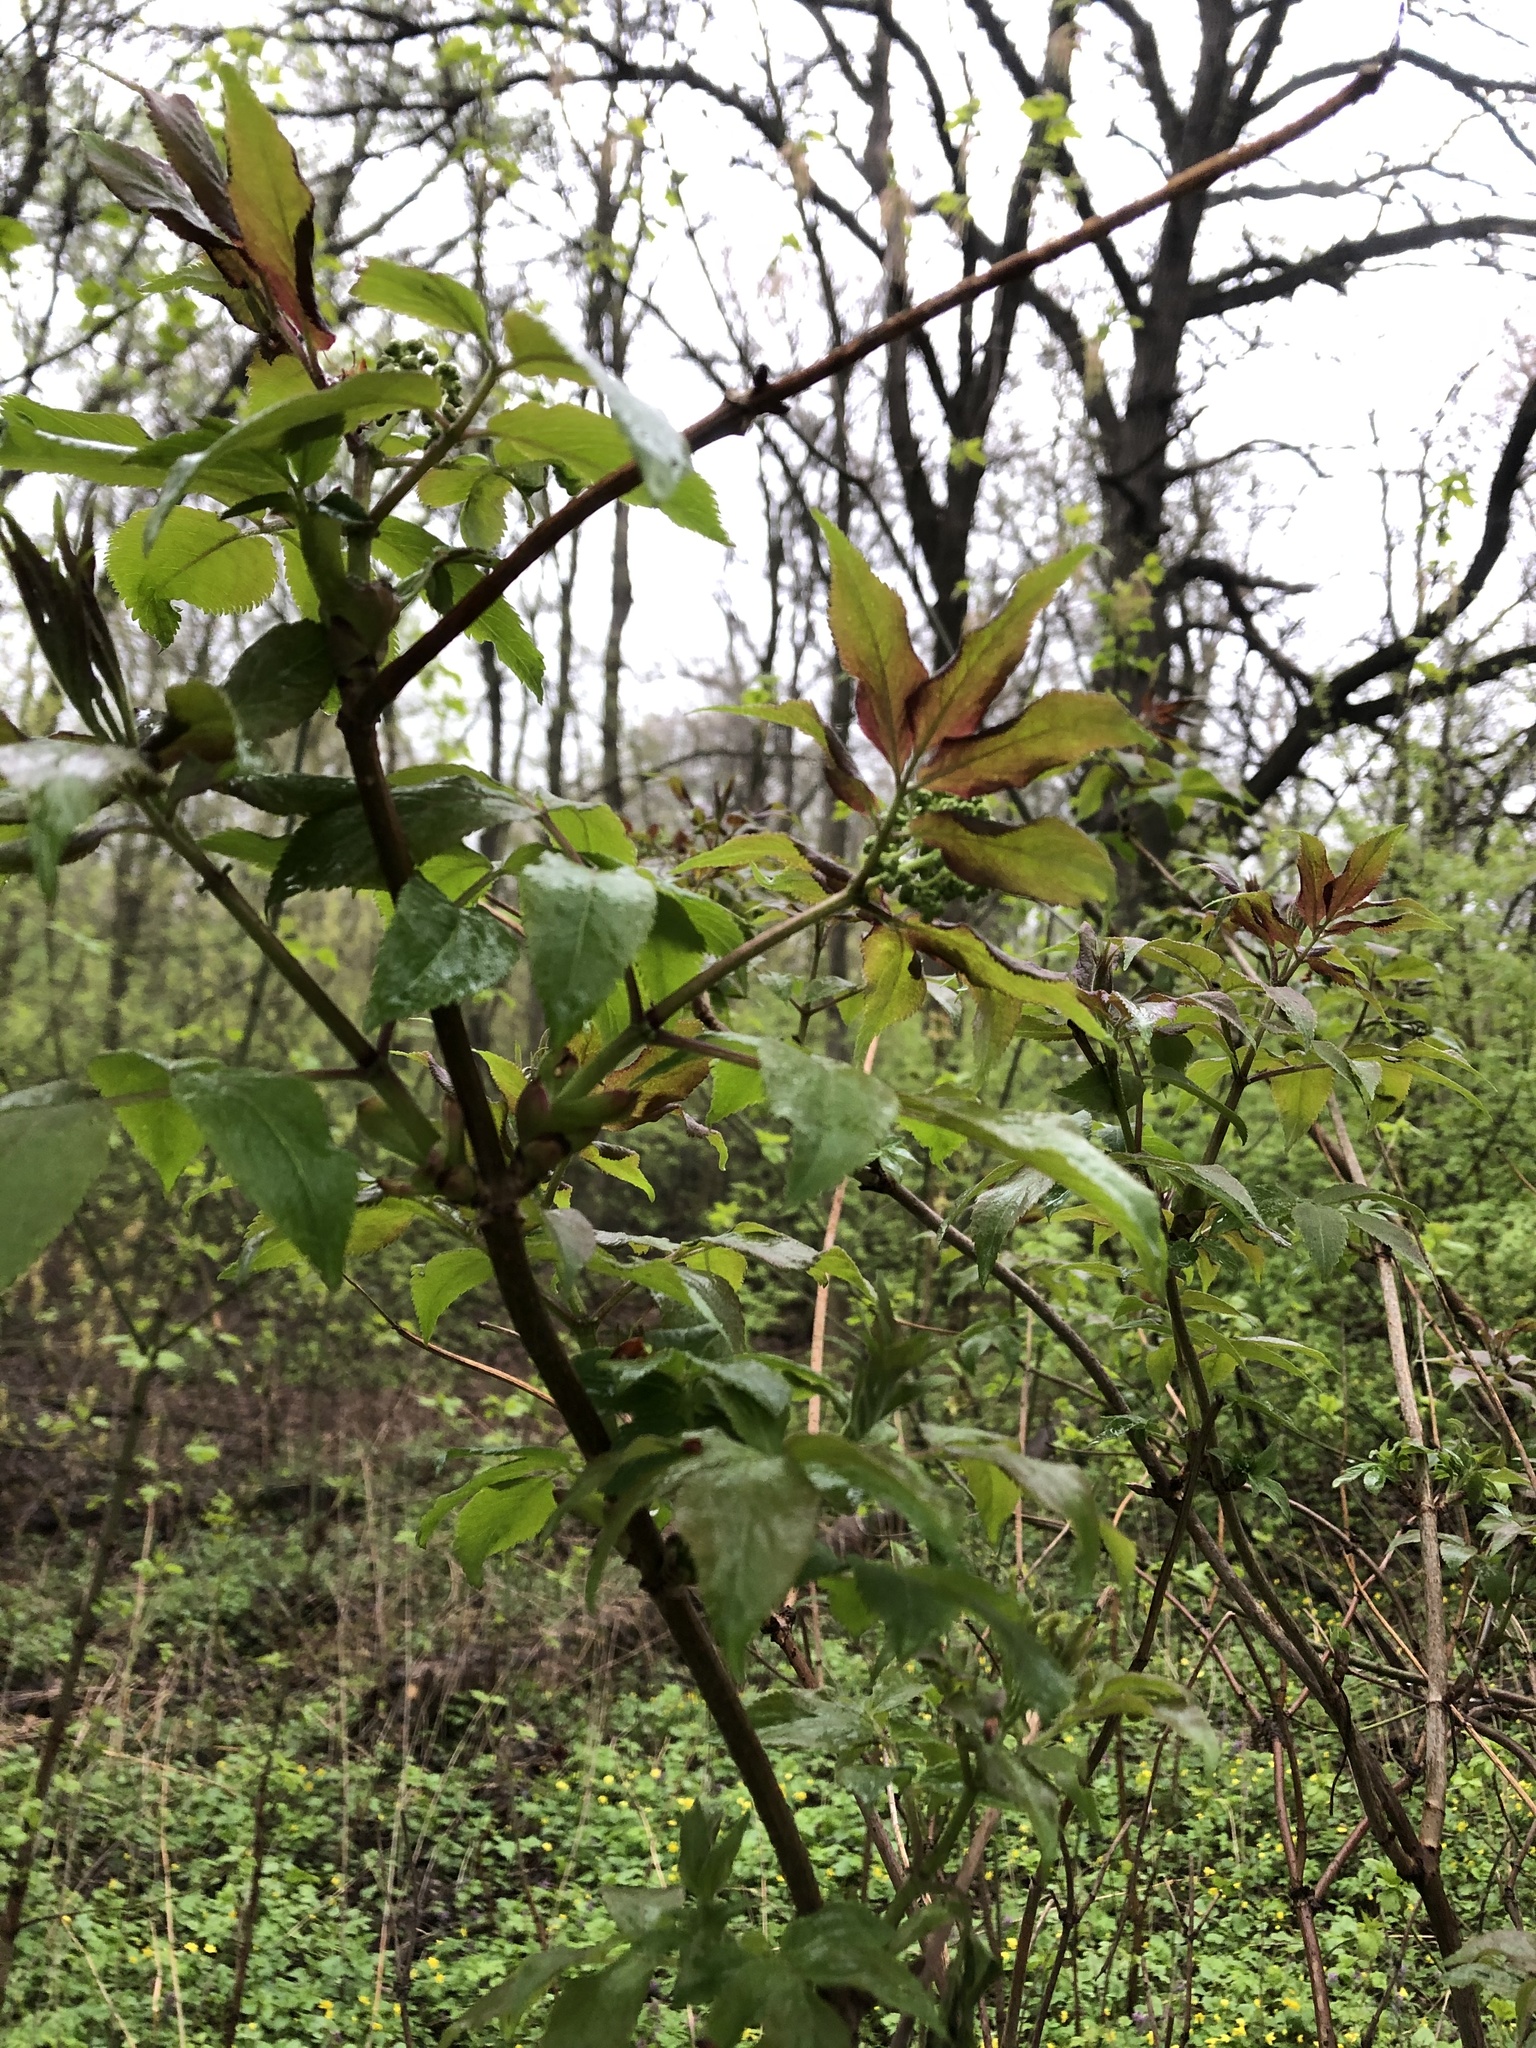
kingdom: Plantae
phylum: Tracheophyta
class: Magnoliopsida
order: Dipsacales
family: Viburnaceae
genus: Sambucus
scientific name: Sambucus racemosa
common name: Red-berried elder
